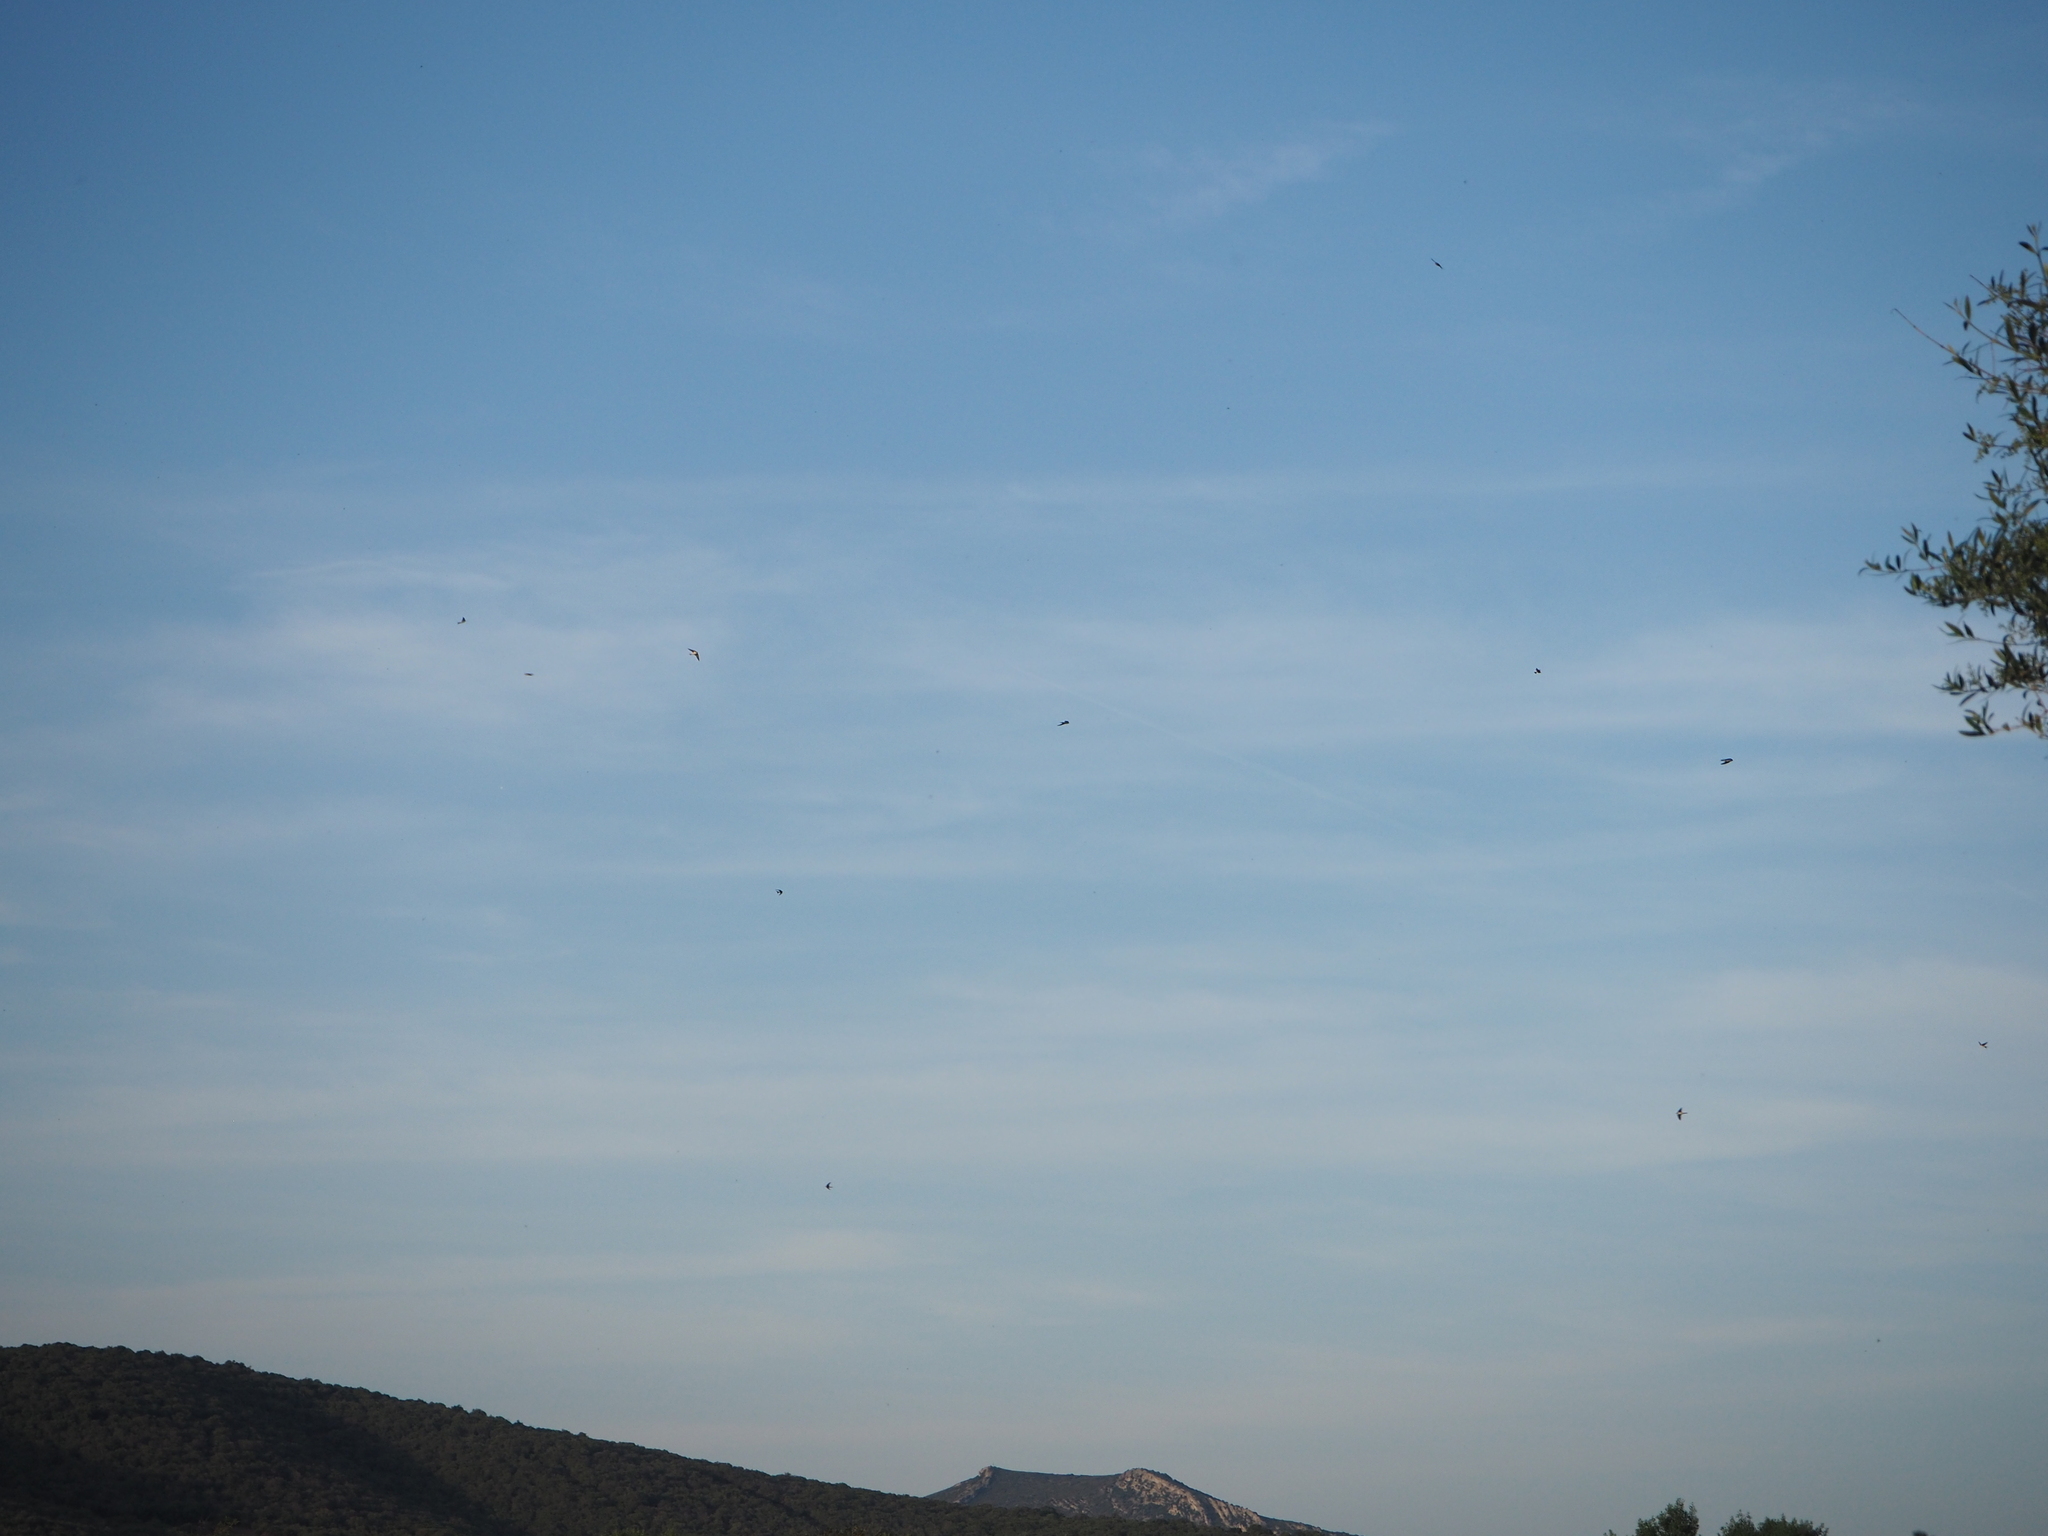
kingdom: Animalia
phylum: Chordata
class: Aves
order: Passeriformes
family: Hirundinidae
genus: Delichon
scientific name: Delichon urbicum
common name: Common house martin
